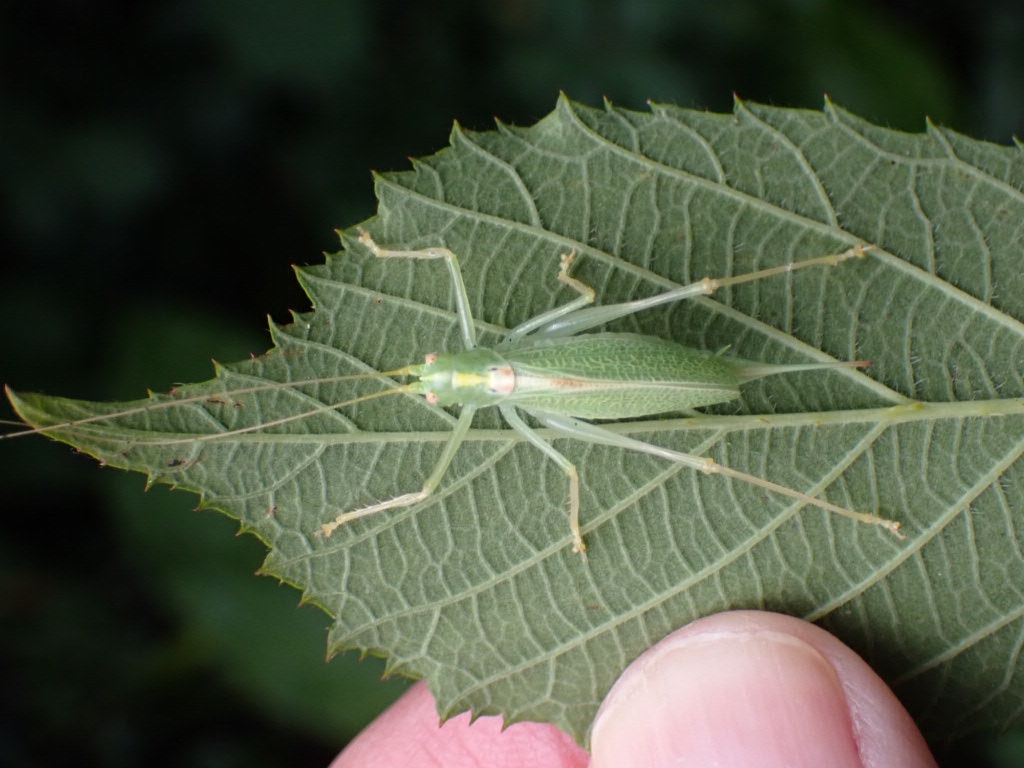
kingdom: Animalia
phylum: Arthropoda
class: Insecta
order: Orthoptera
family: Tettigoniidae
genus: Meconema
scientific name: Meconema thalassinum
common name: Oak bush-cricket
